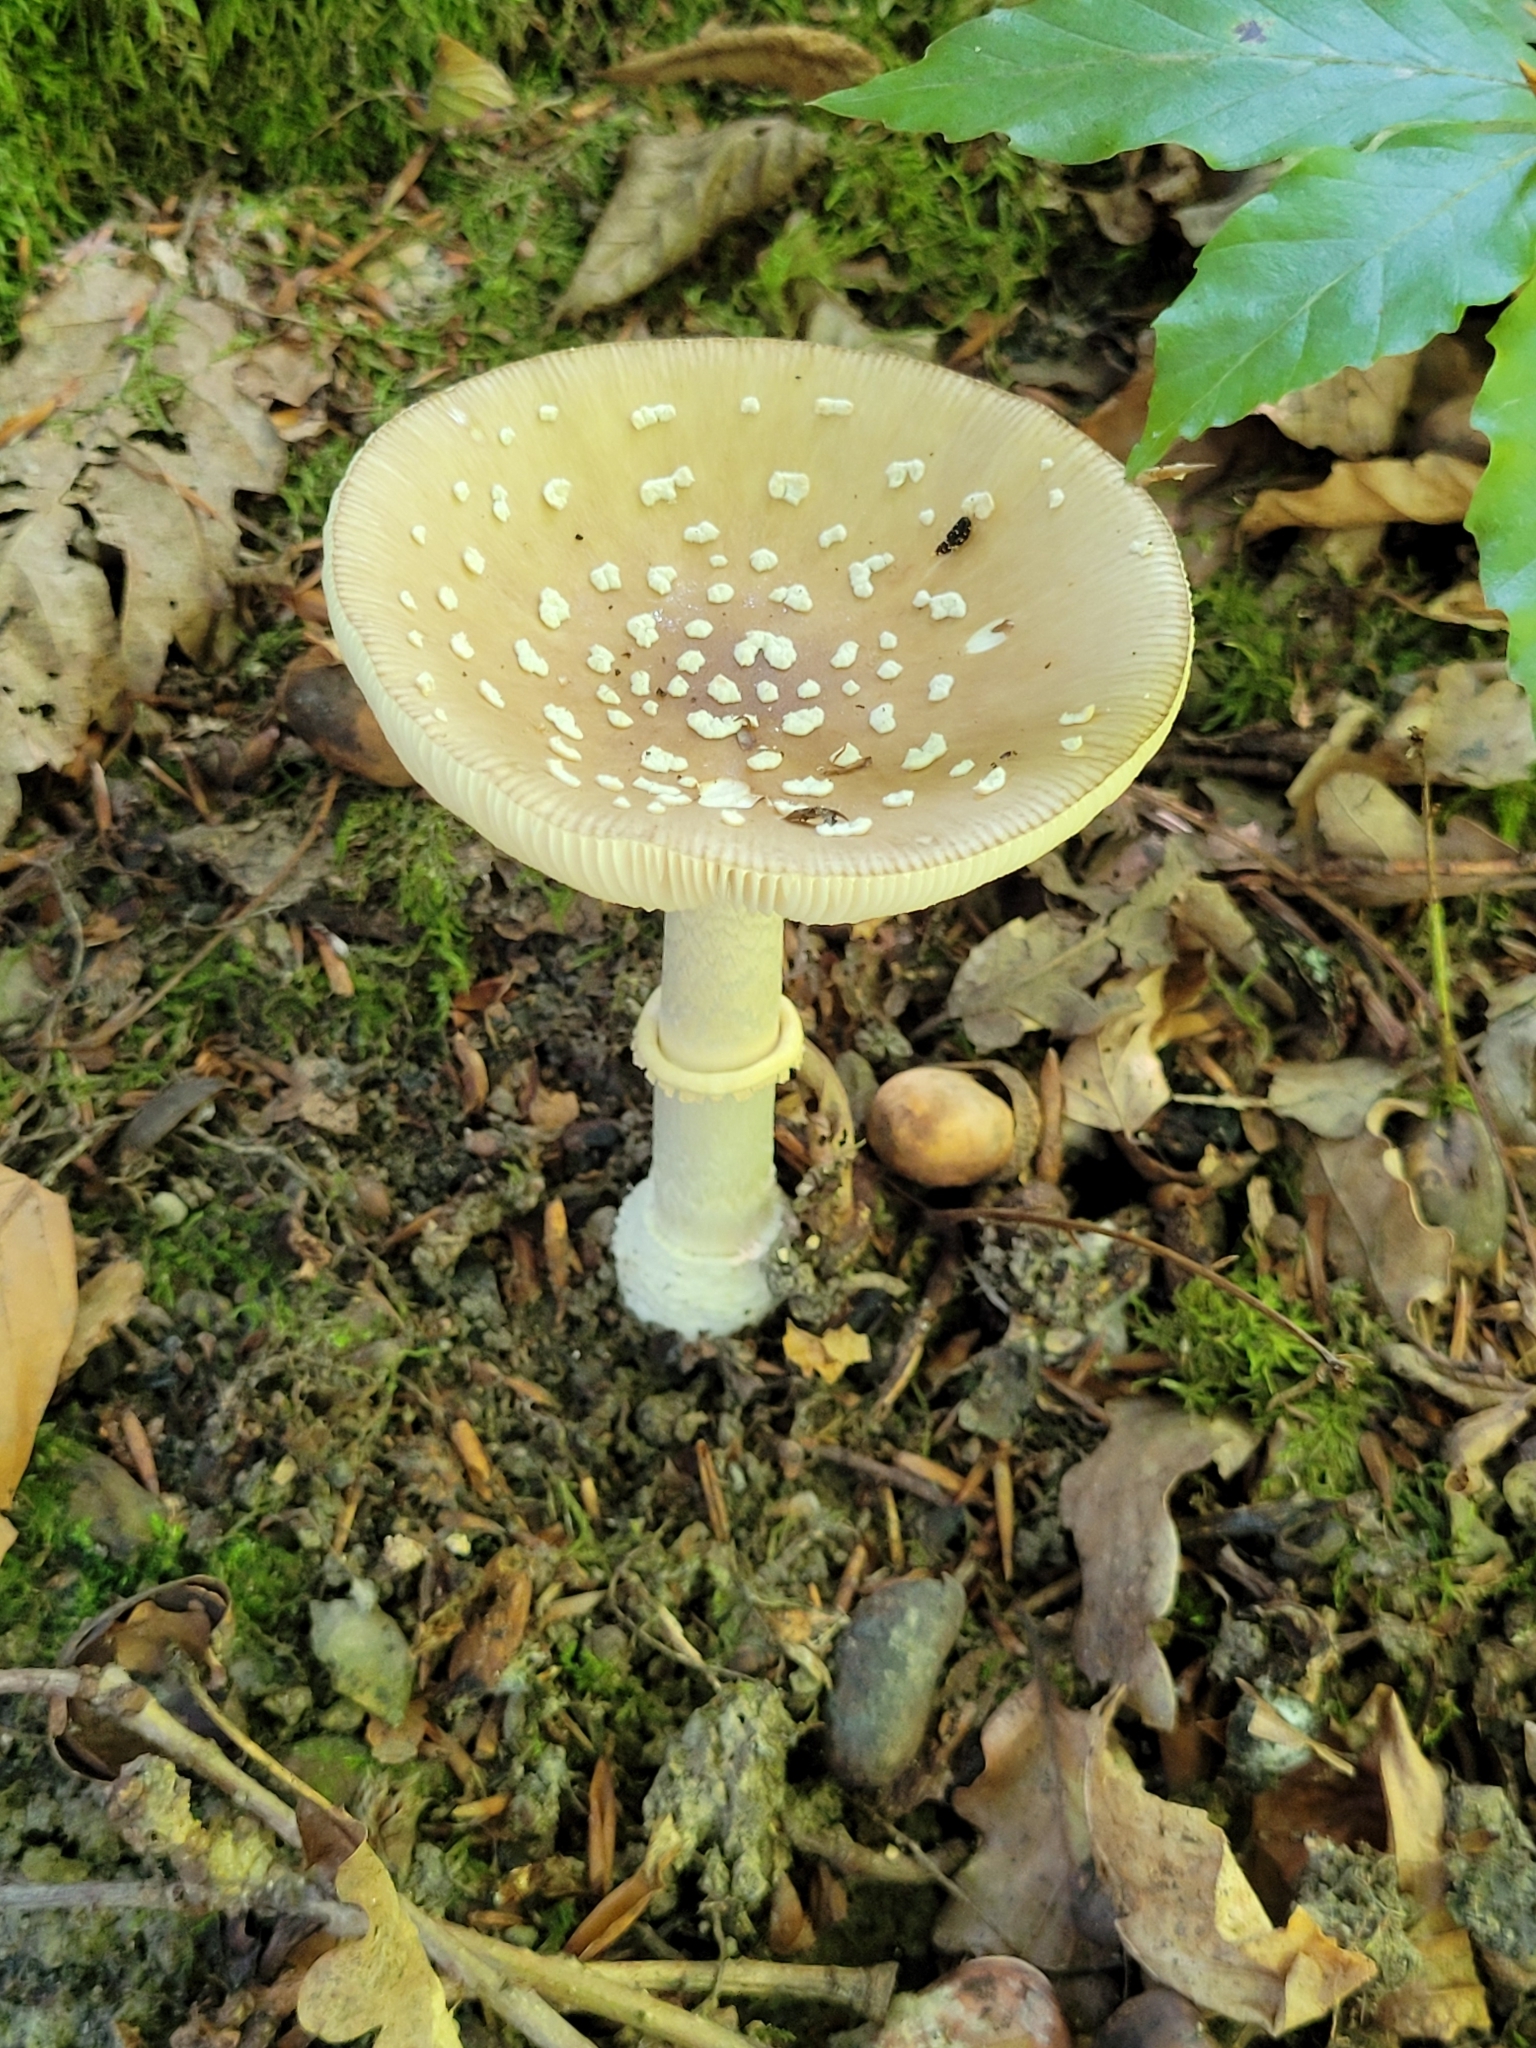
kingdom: Fungi
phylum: Basidiomycota
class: Agaricomycetes
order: Agaricales
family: Amanitaceae
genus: Amanita
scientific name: Amanita pantherina
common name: Panthercap
